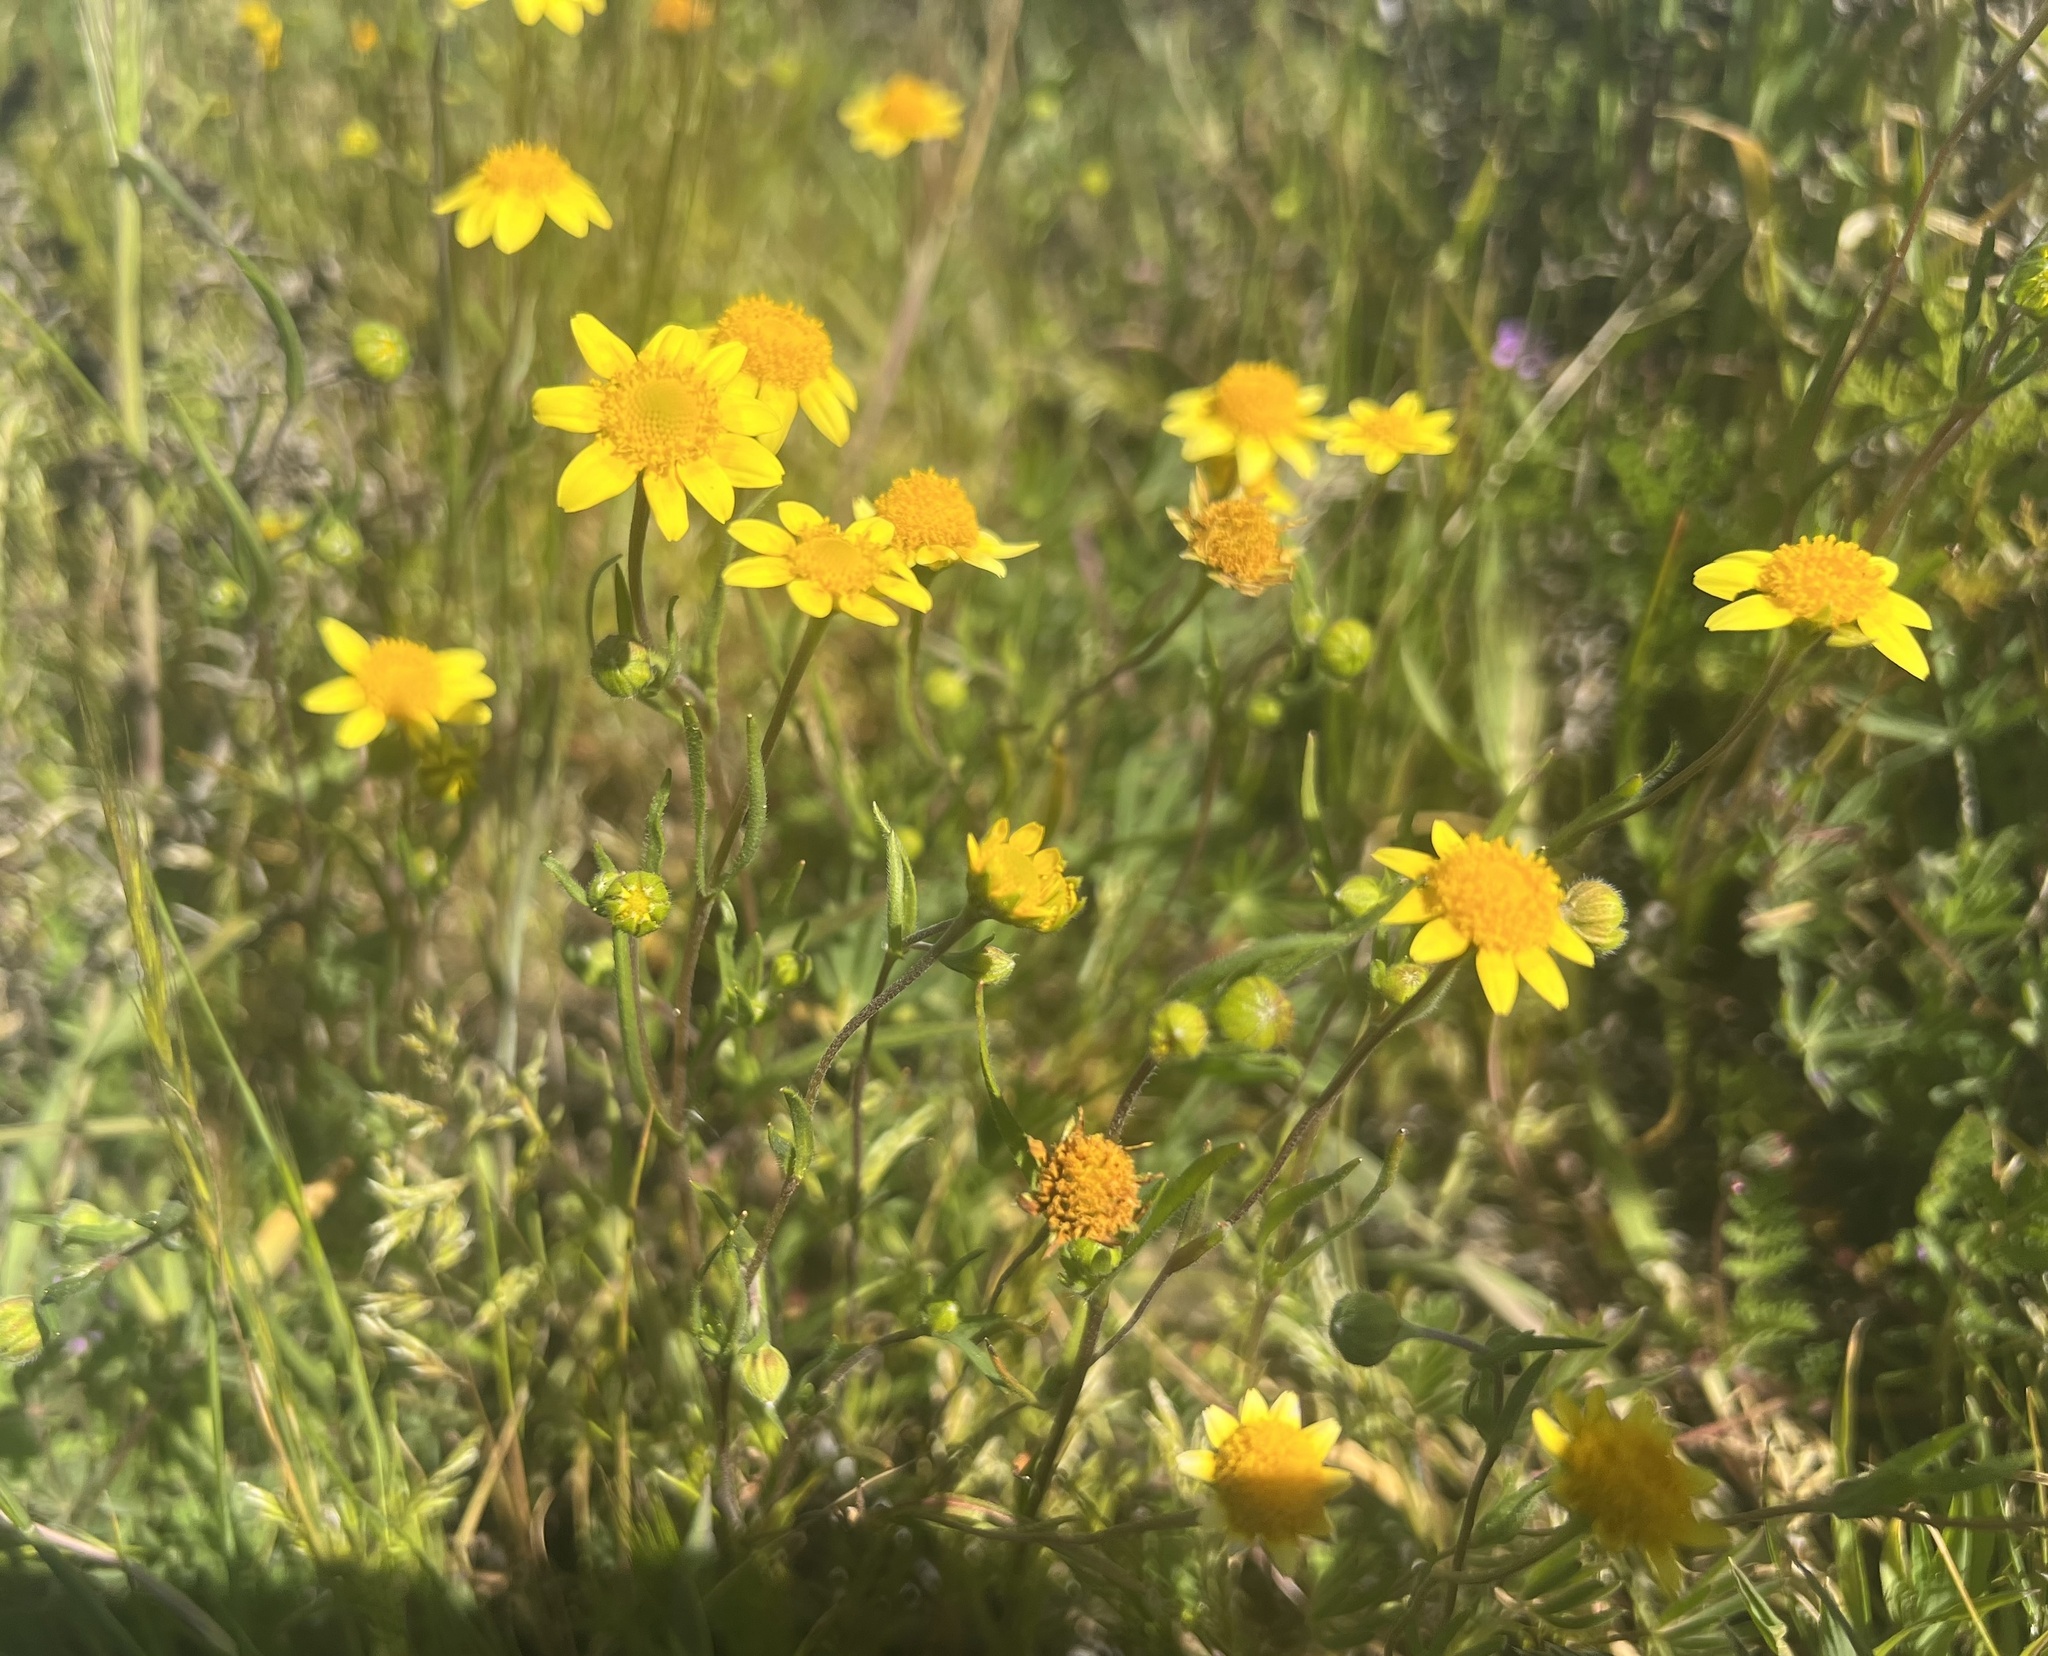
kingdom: Plantae
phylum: Tracheophyta
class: Magnoliopsida
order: Asterales
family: Asteraceae
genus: Lasthenia
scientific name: Lasthenia californica
